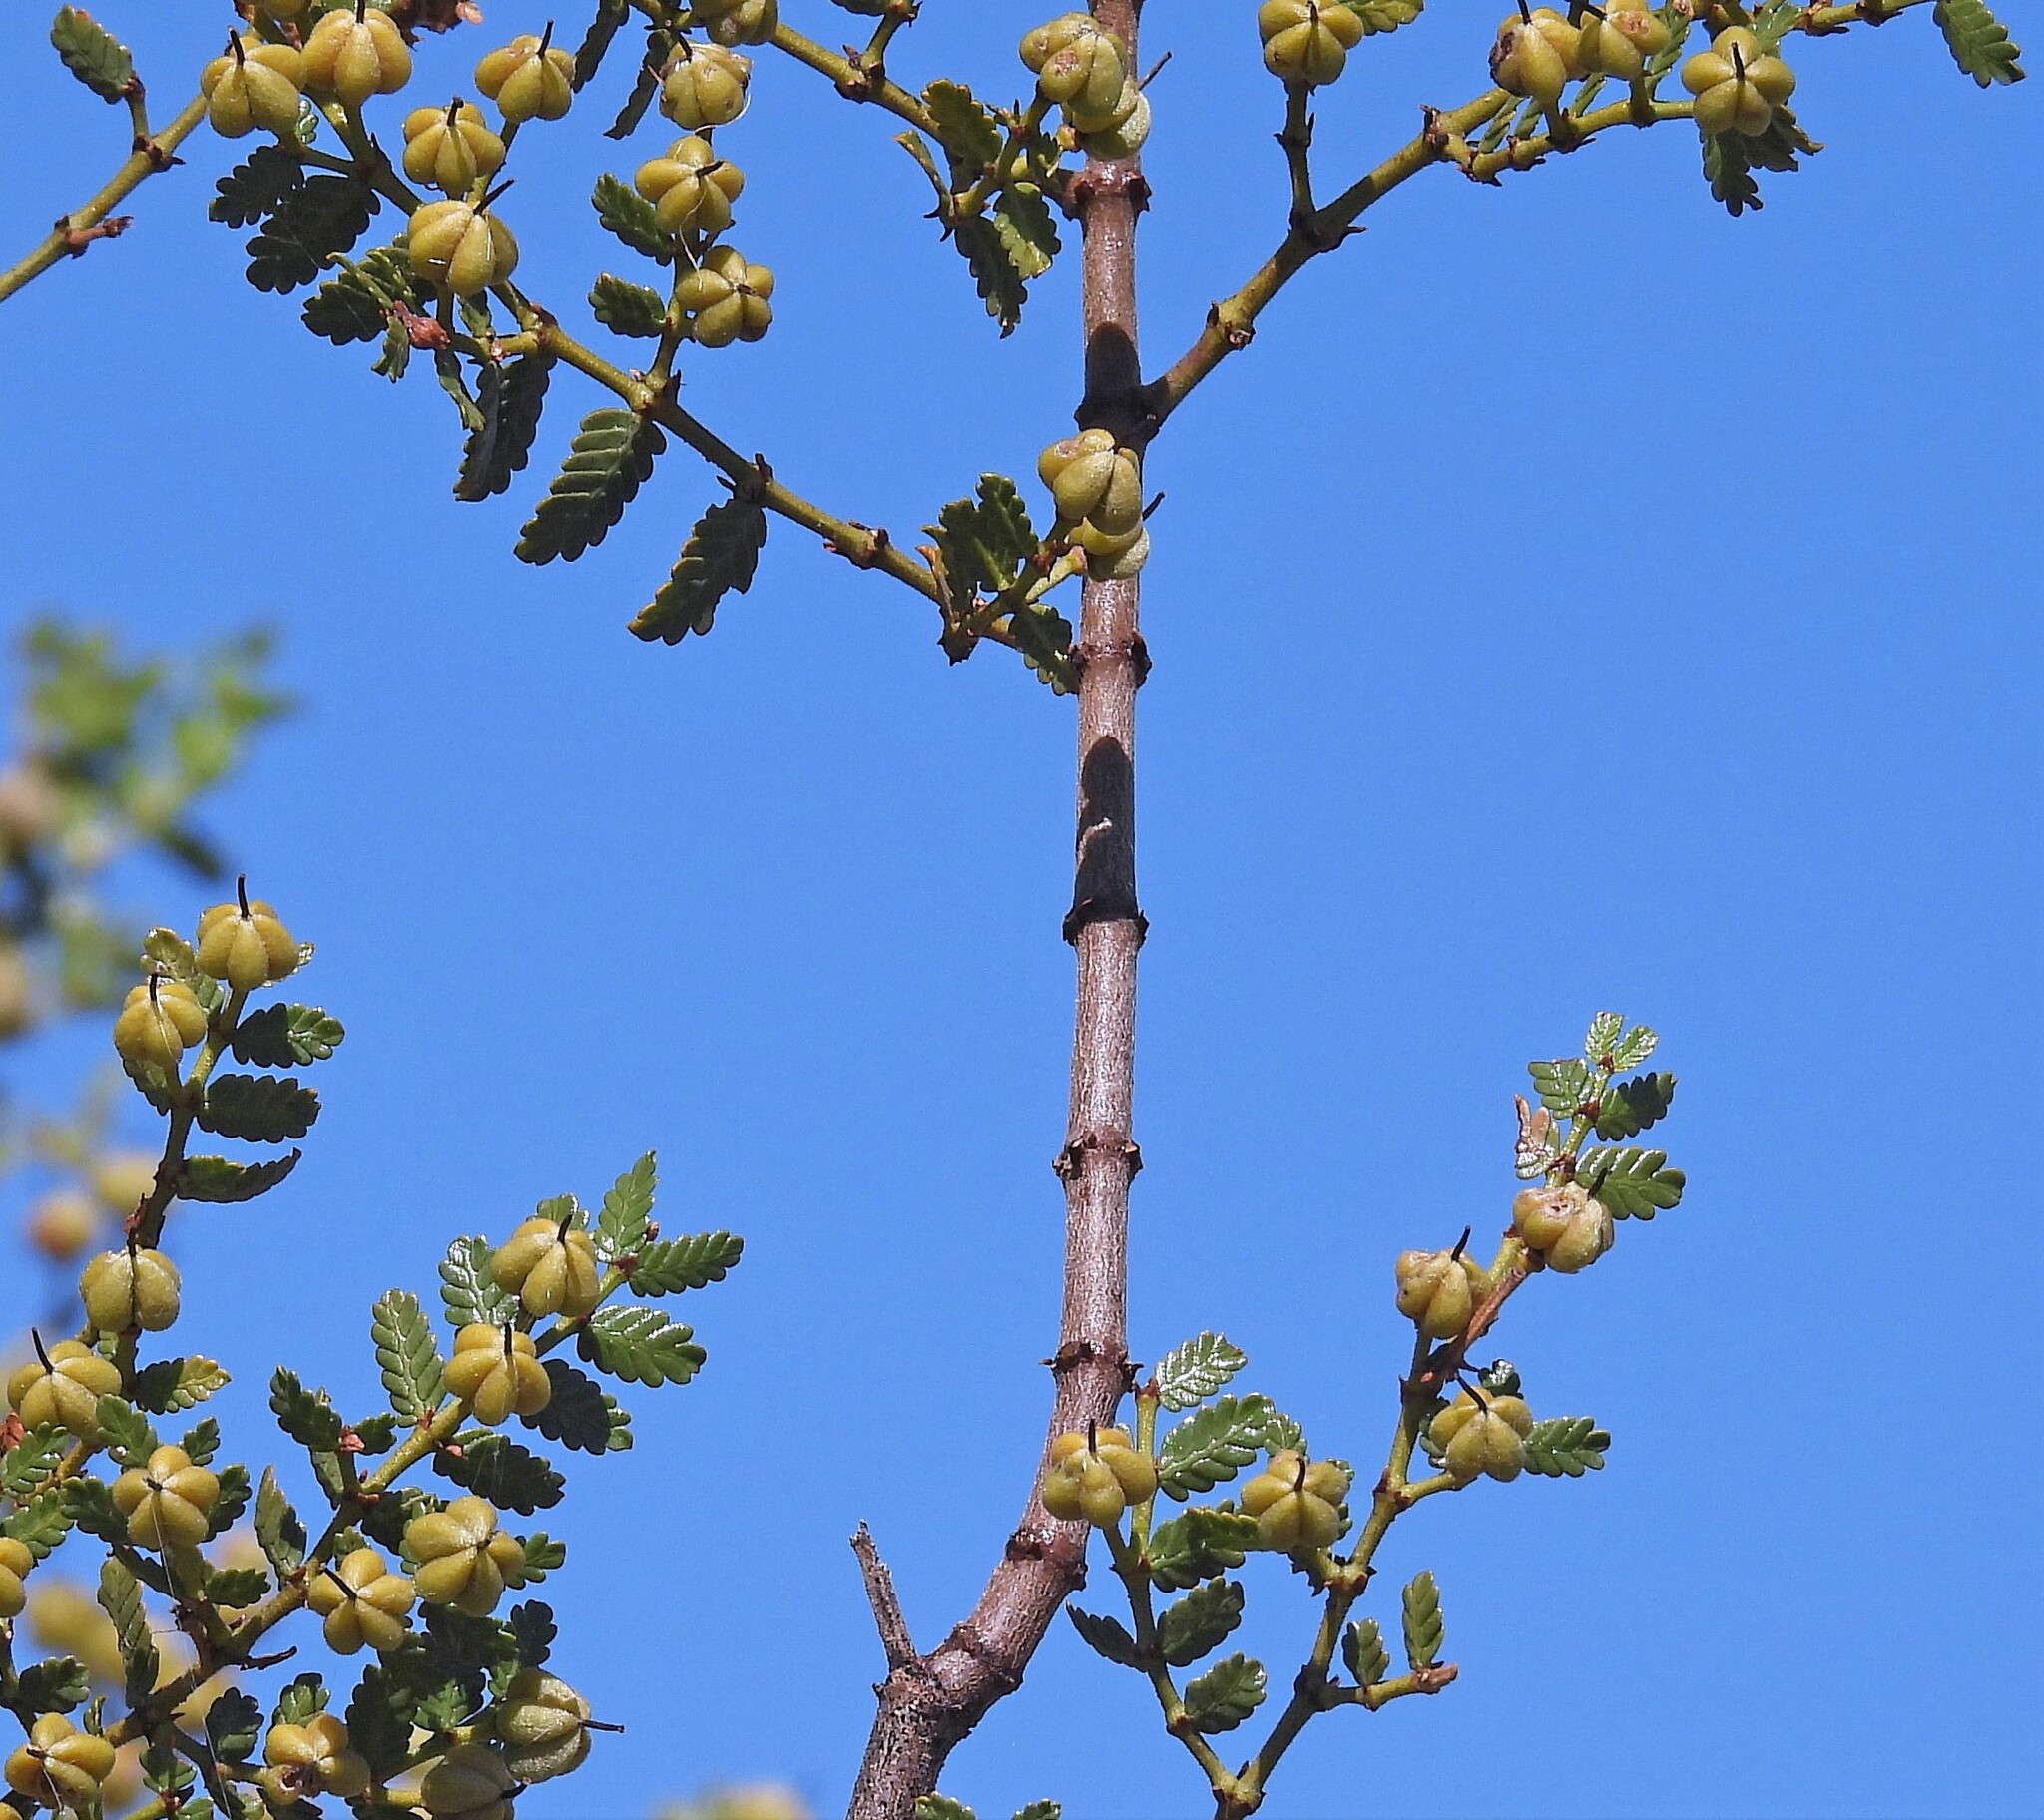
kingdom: Plantae
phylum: Tracheophyta
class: Magnoliopsida
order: Zygophyllales
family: Zygophyllaceae
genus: Larrea
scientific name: Larrea nitida
